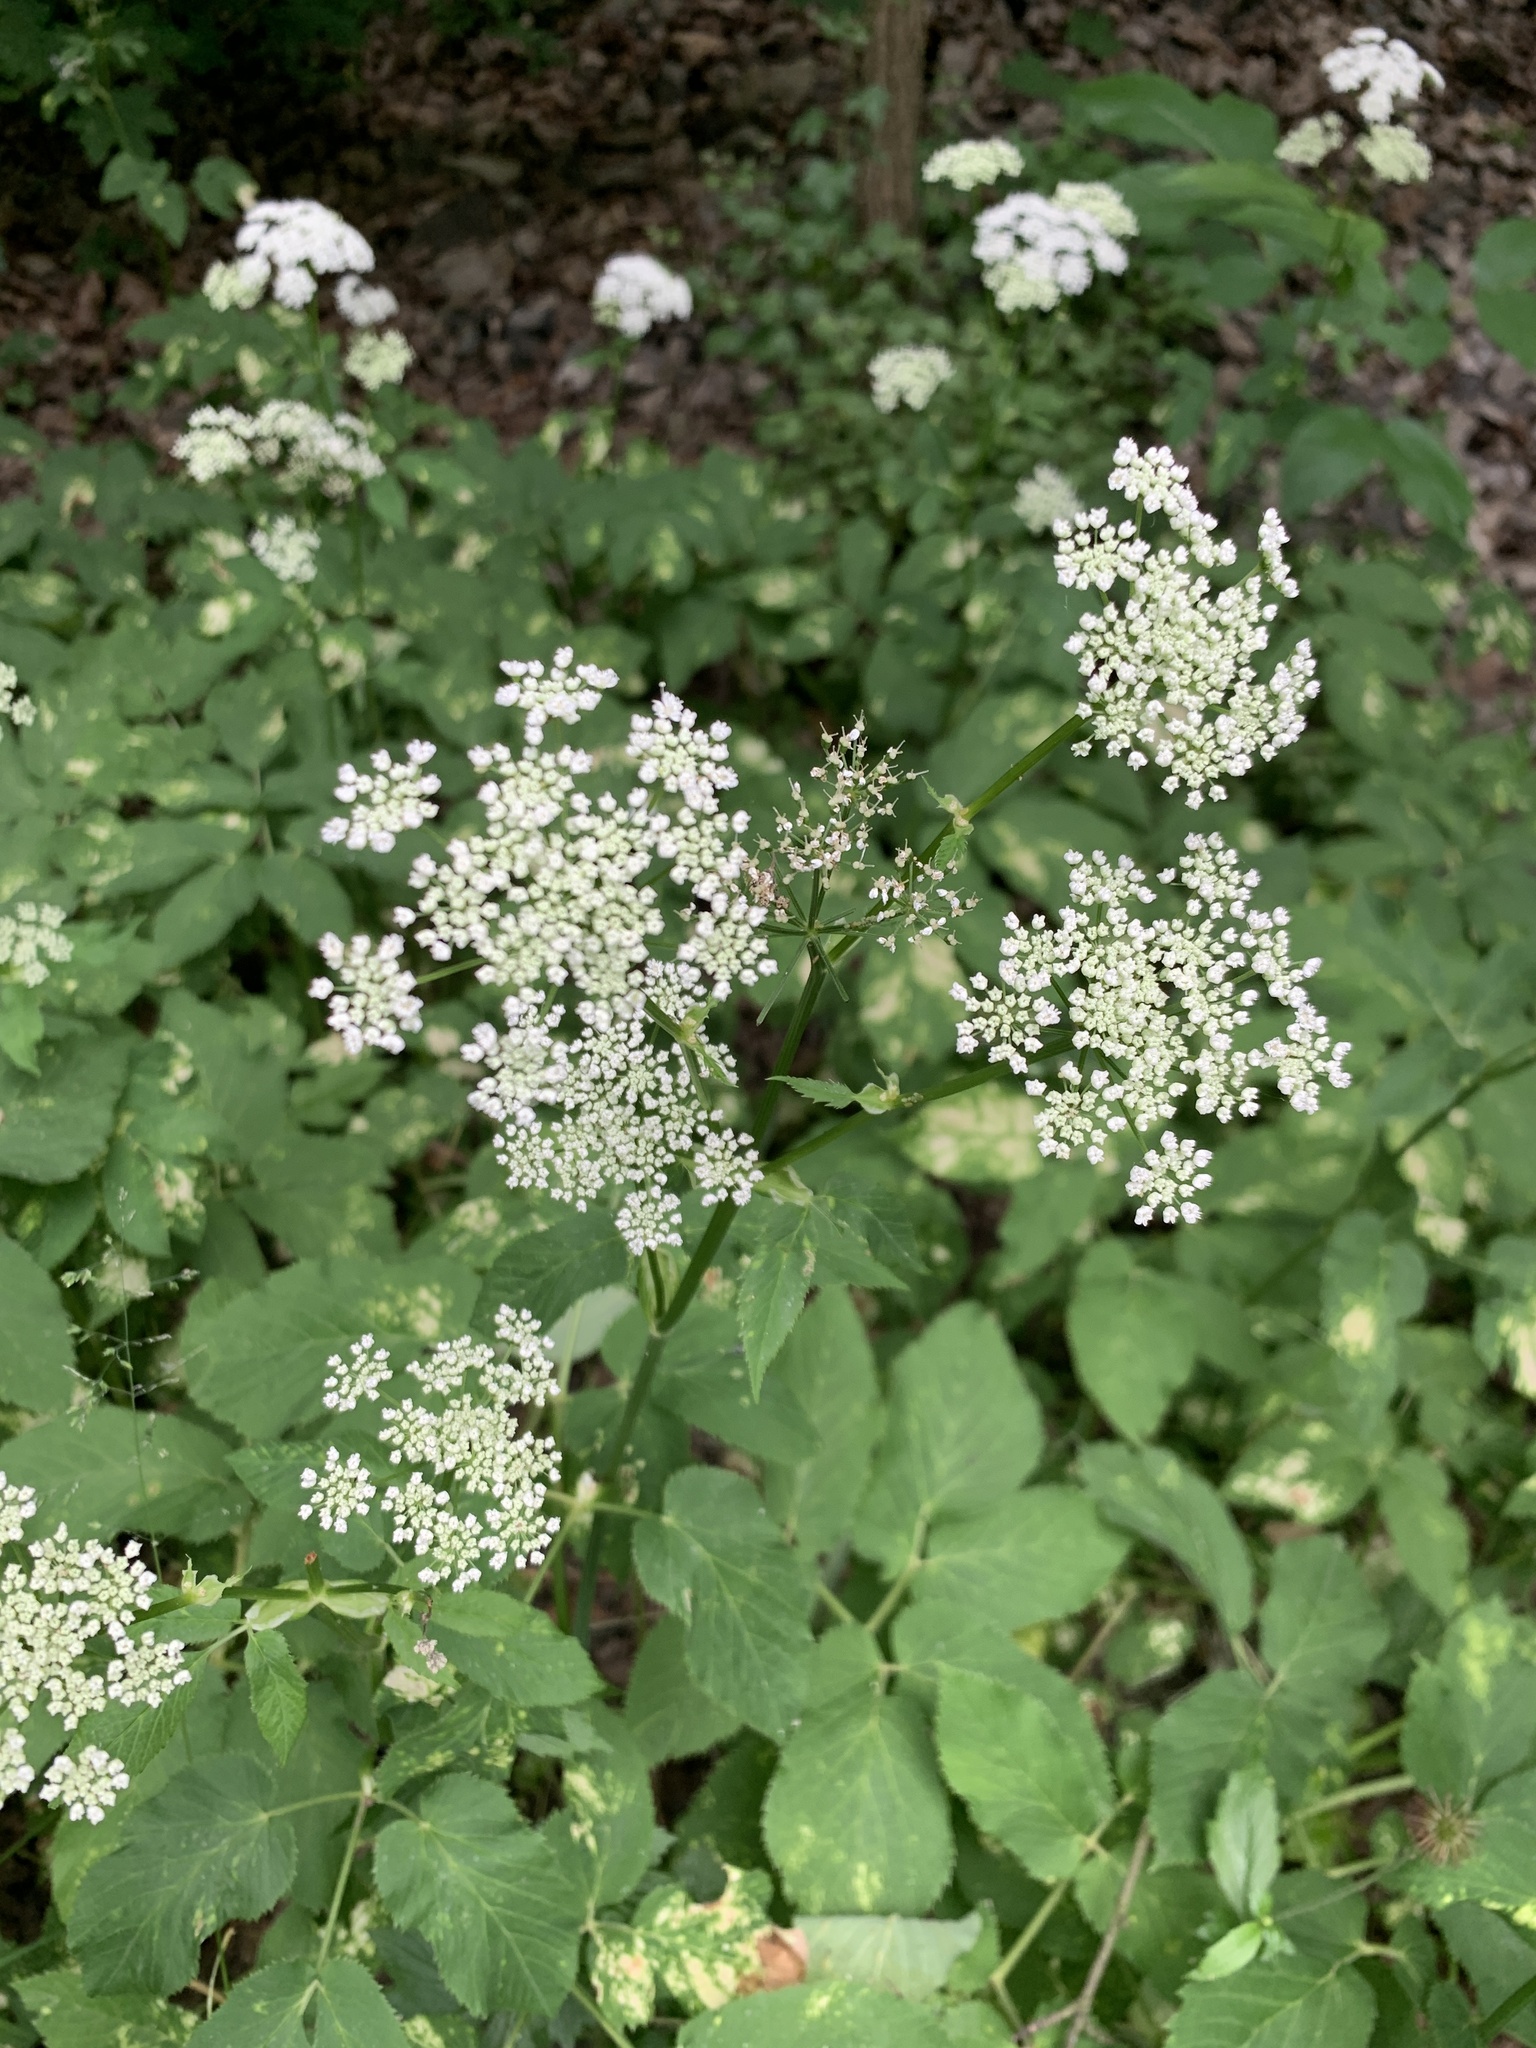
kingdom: Plantae
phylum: Tracheophyta
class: Magnoliopsida
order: Apiales
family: Apiaceae
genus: Aegopodium
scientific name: Aegopodium podagraria
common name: Ground-elder
